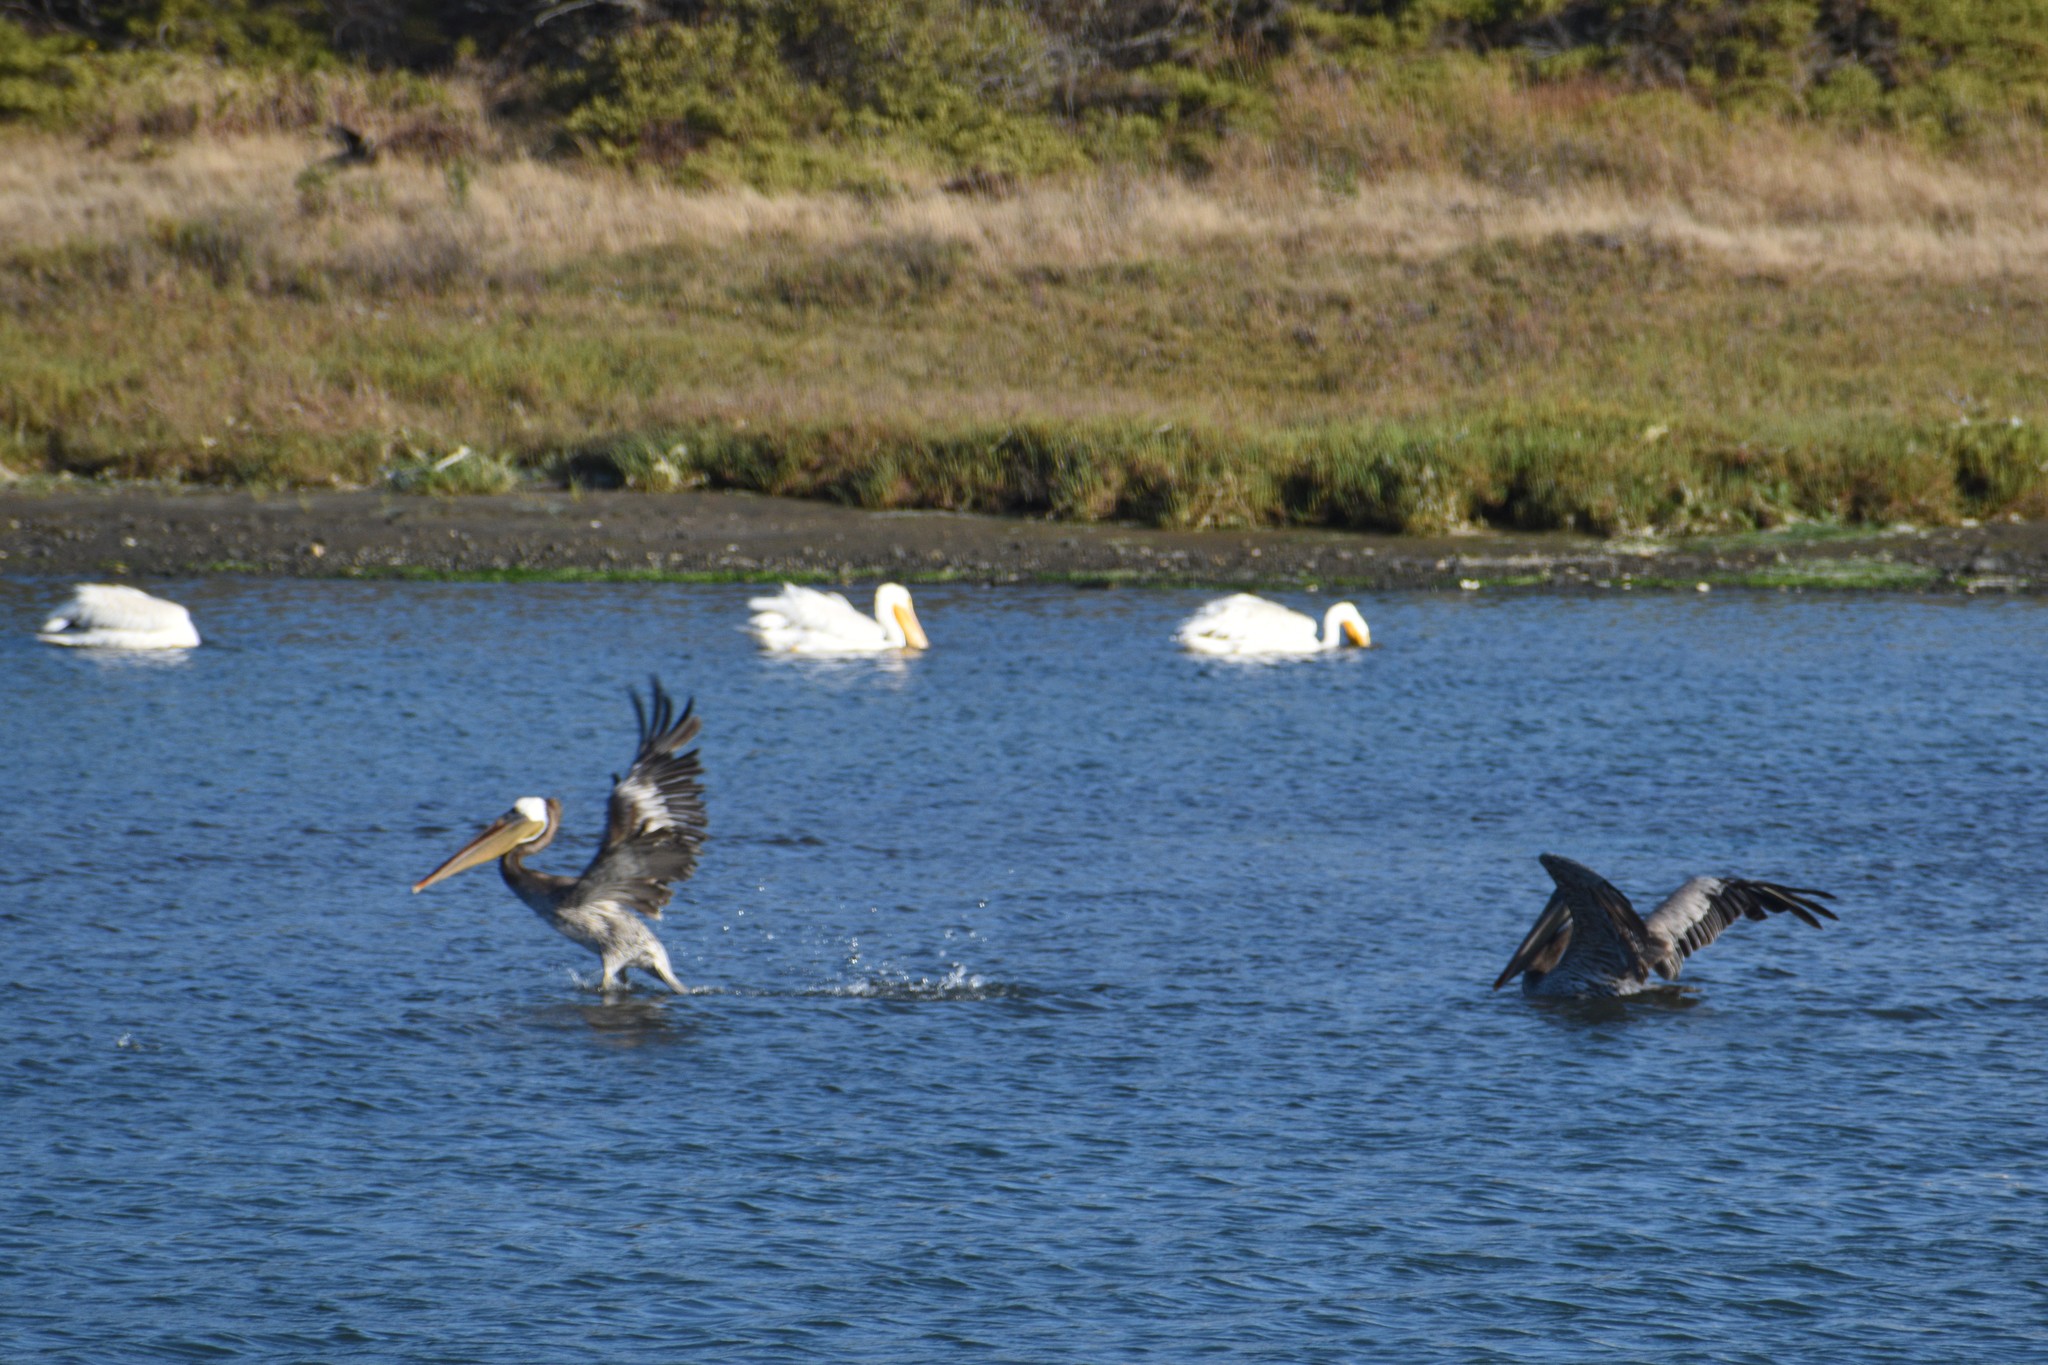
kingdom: Animalia
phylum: Chordata
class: Aves
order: Pelecaniformes
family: Pelecanidae
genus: Pelecanus
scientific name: Pelecanus occidentalis
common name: Brown pelican
